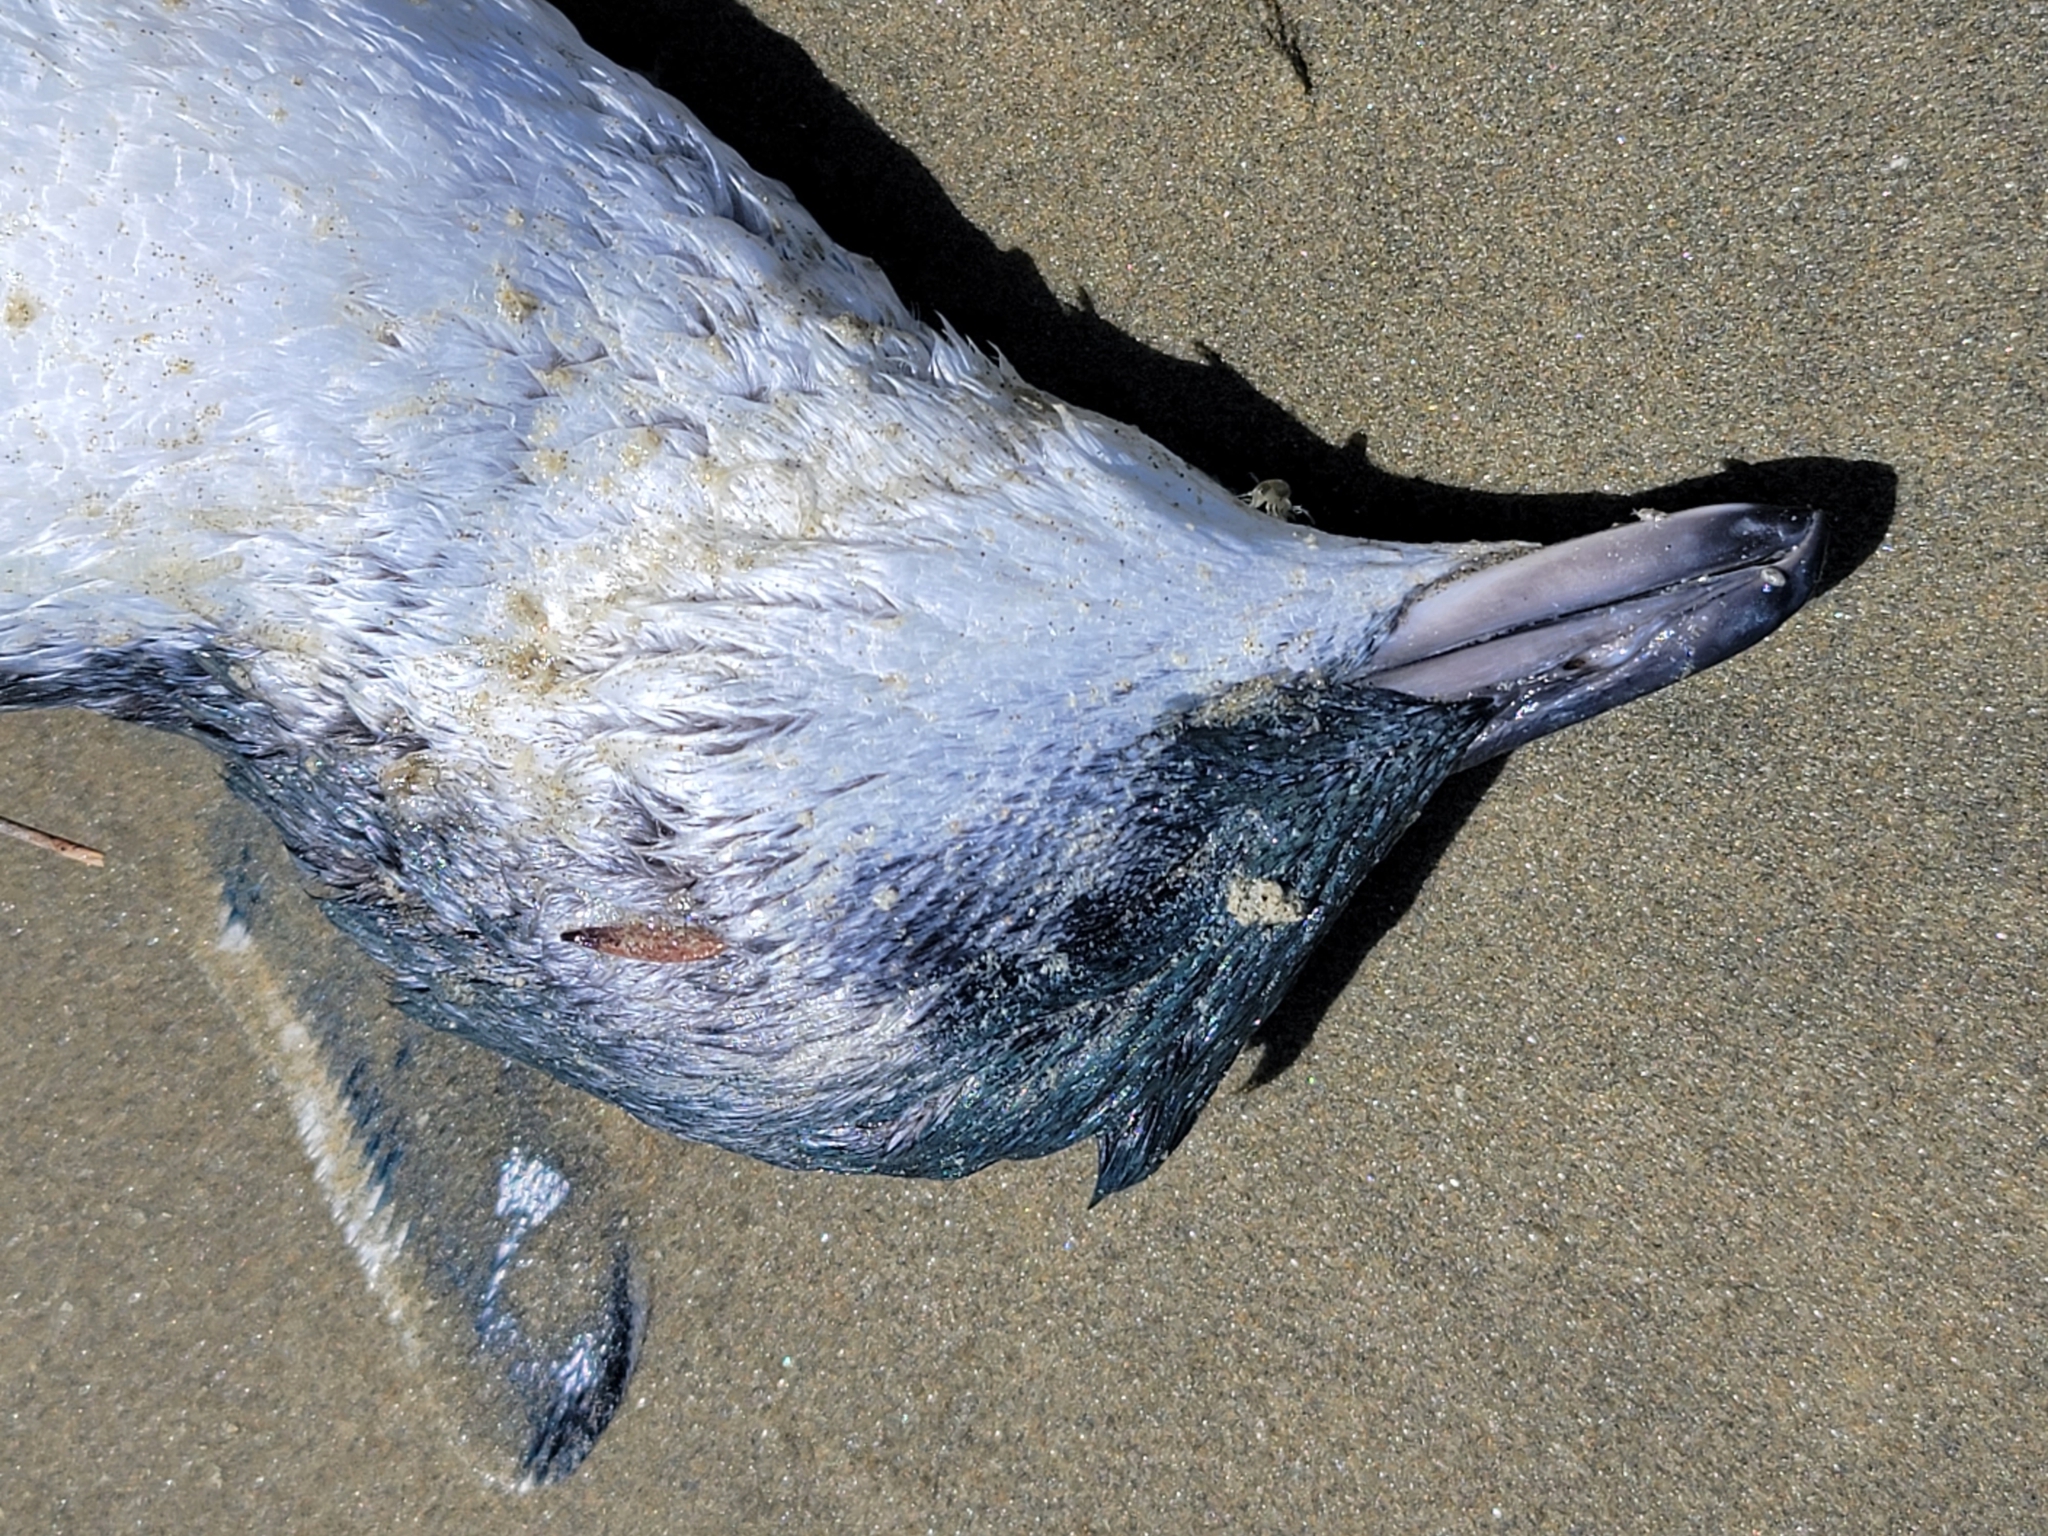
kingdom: Animalia
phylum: Chordata
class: Aves
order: Sphenisciformes
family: Spheniscidae
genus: Eudyptula
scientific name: Eudyptula minor
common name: Little penguin
